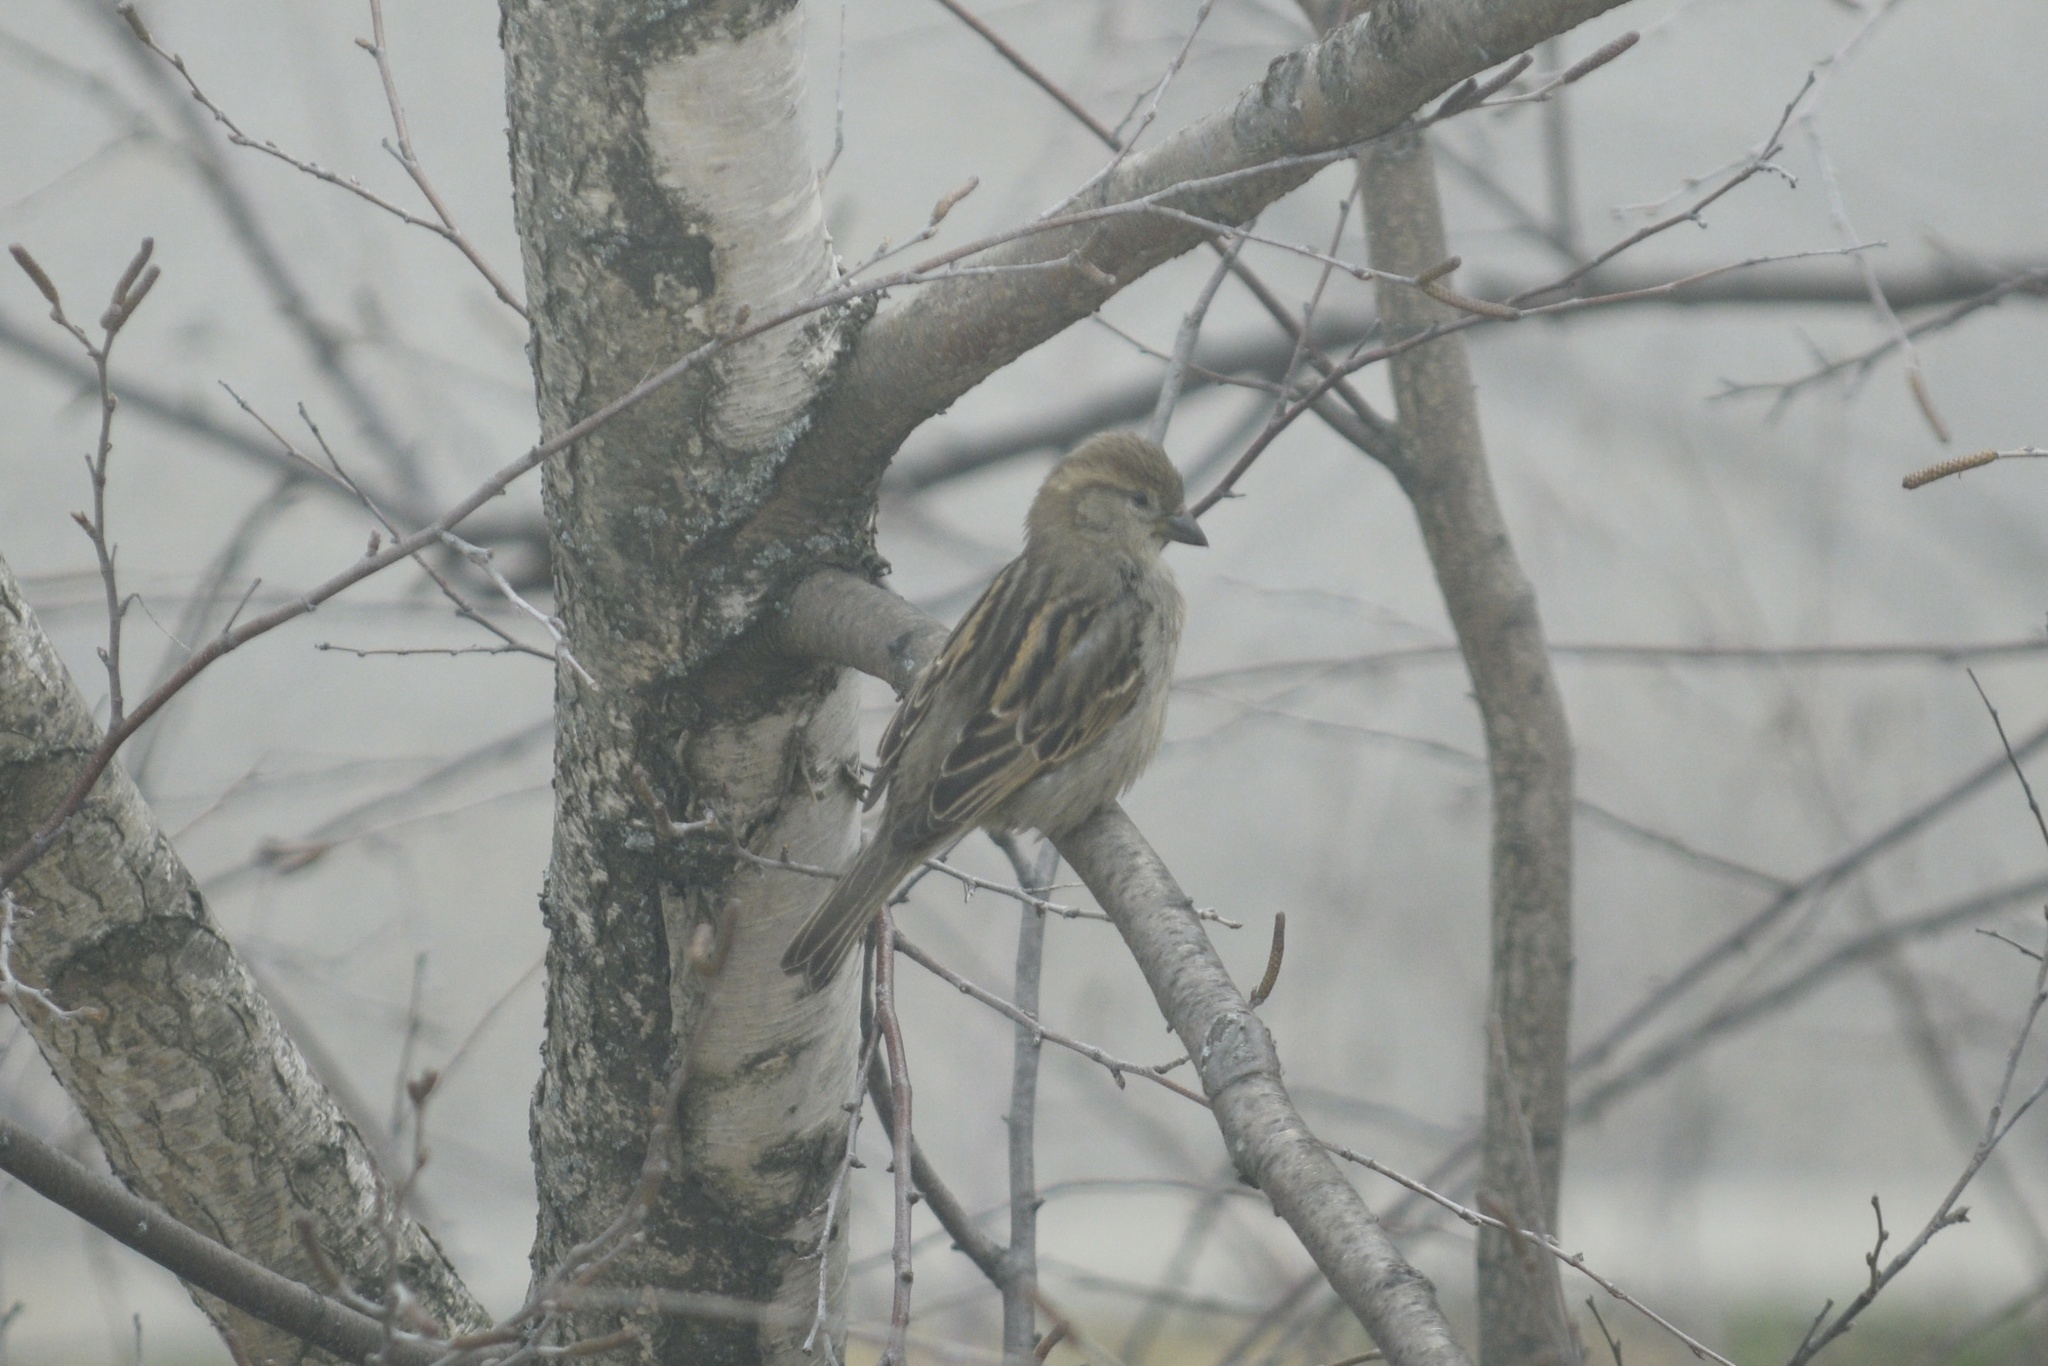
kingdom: Animalia
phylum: Chordata
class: Aves
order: Passeriformes
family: Passeridae
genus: Passer
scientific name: Passer domesticus
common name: House sparrow
